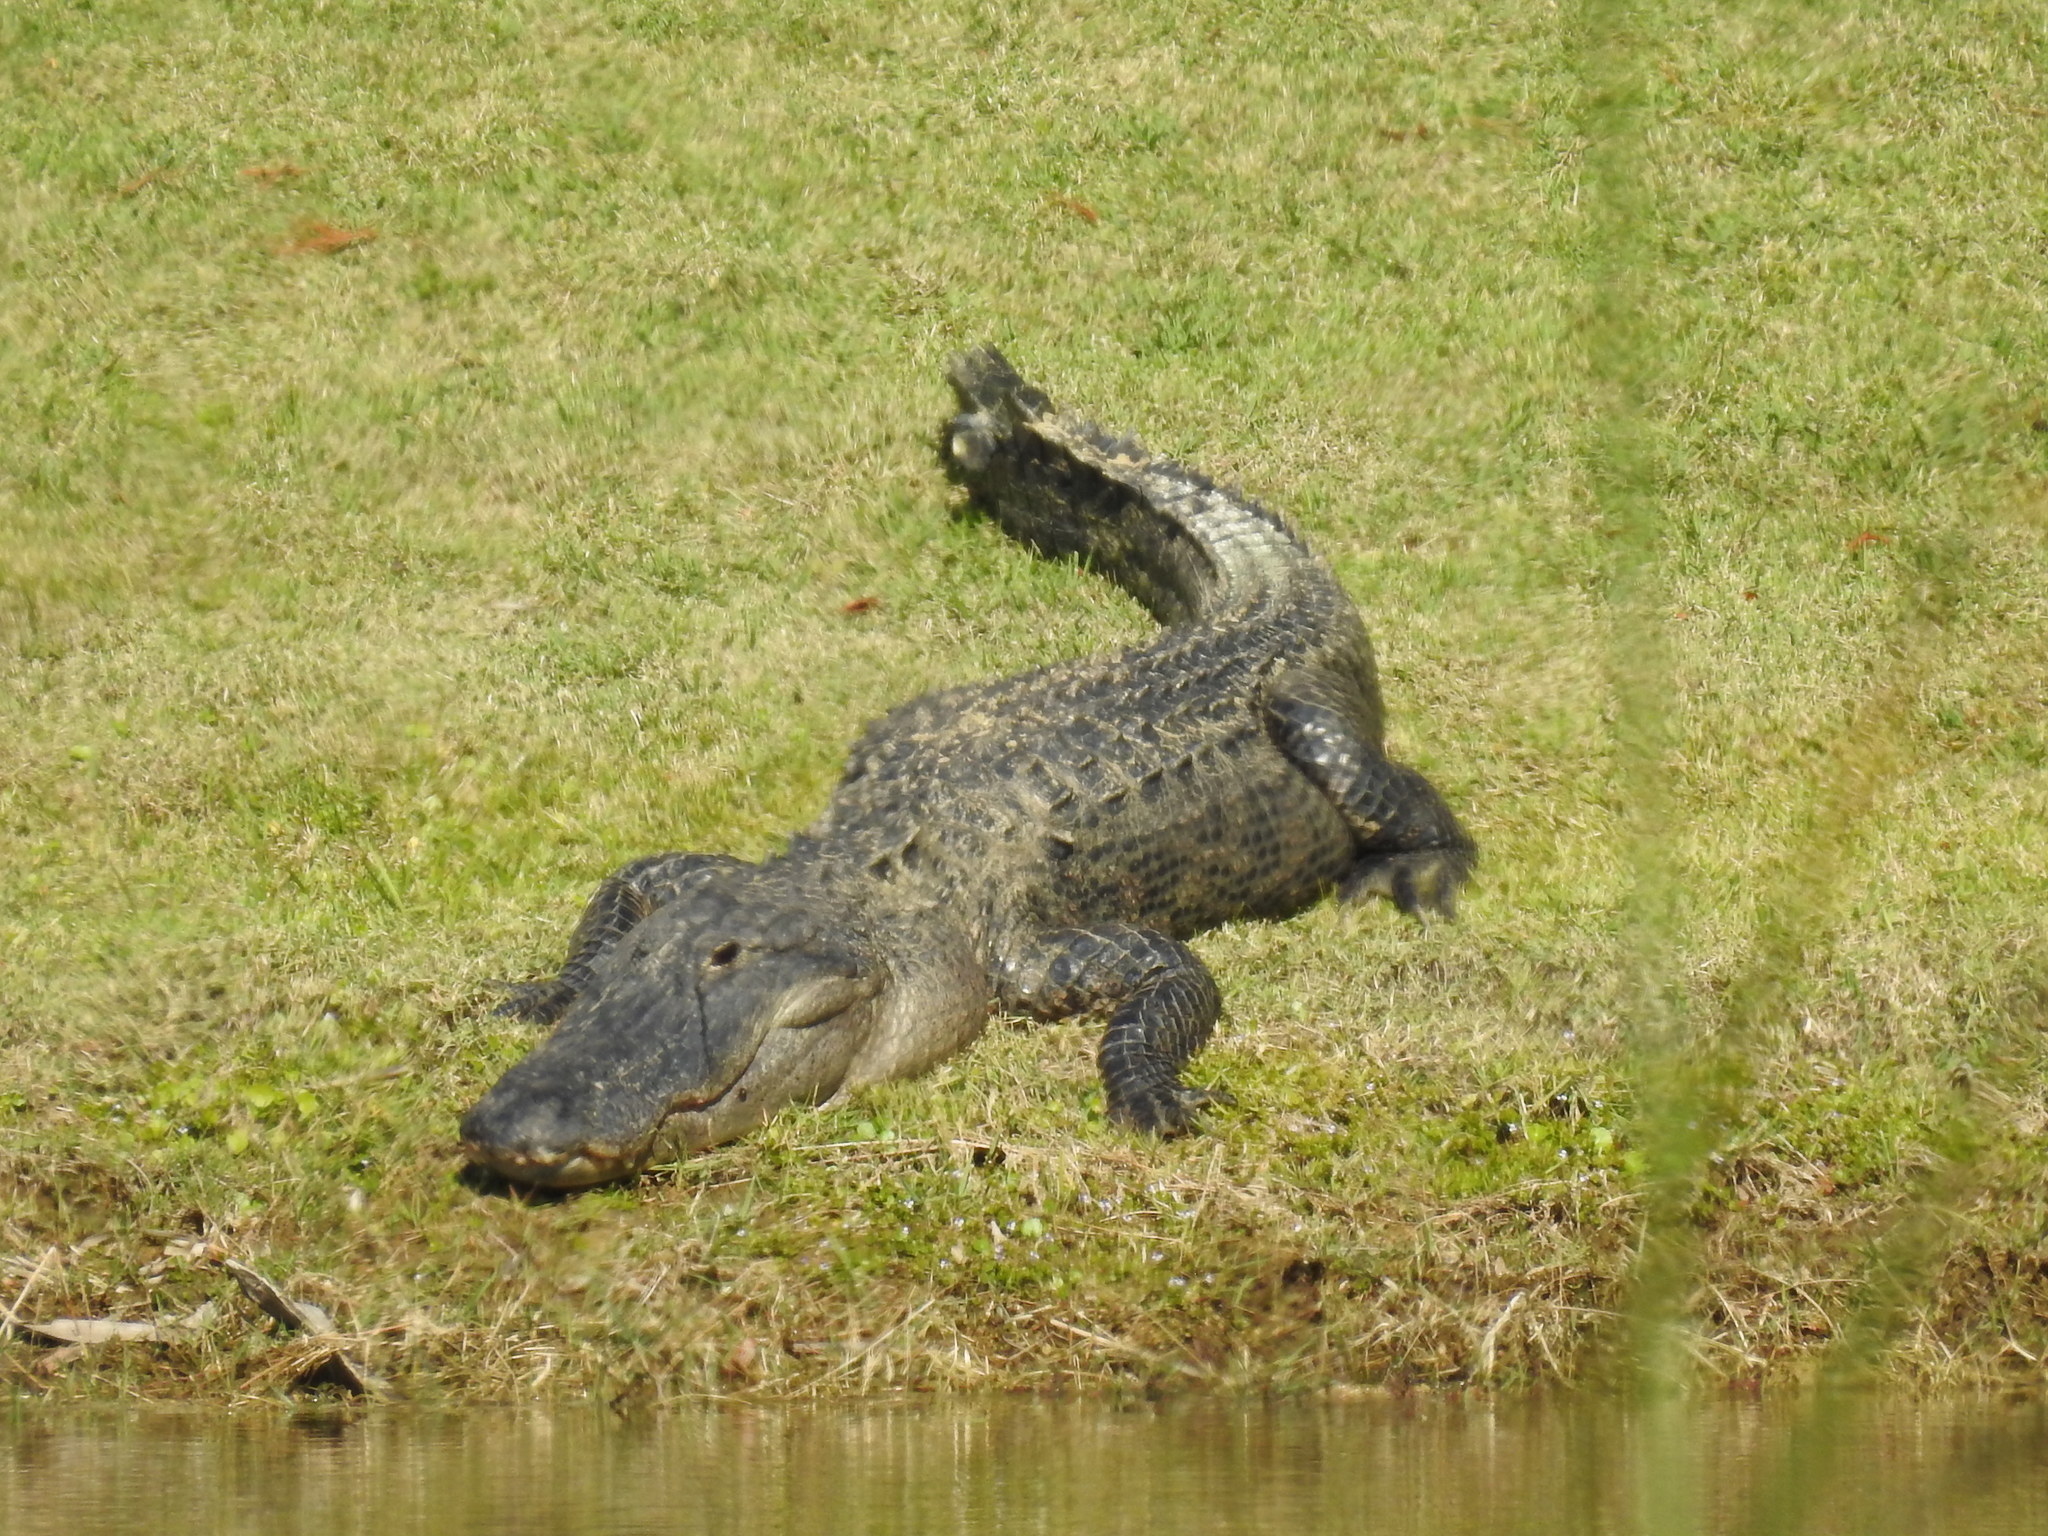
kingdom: Animalia
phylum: Chordata
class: Crocodylia
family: Alligatoridae
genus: Alligator
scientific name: Alligator mississippiensis
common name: American alligator
